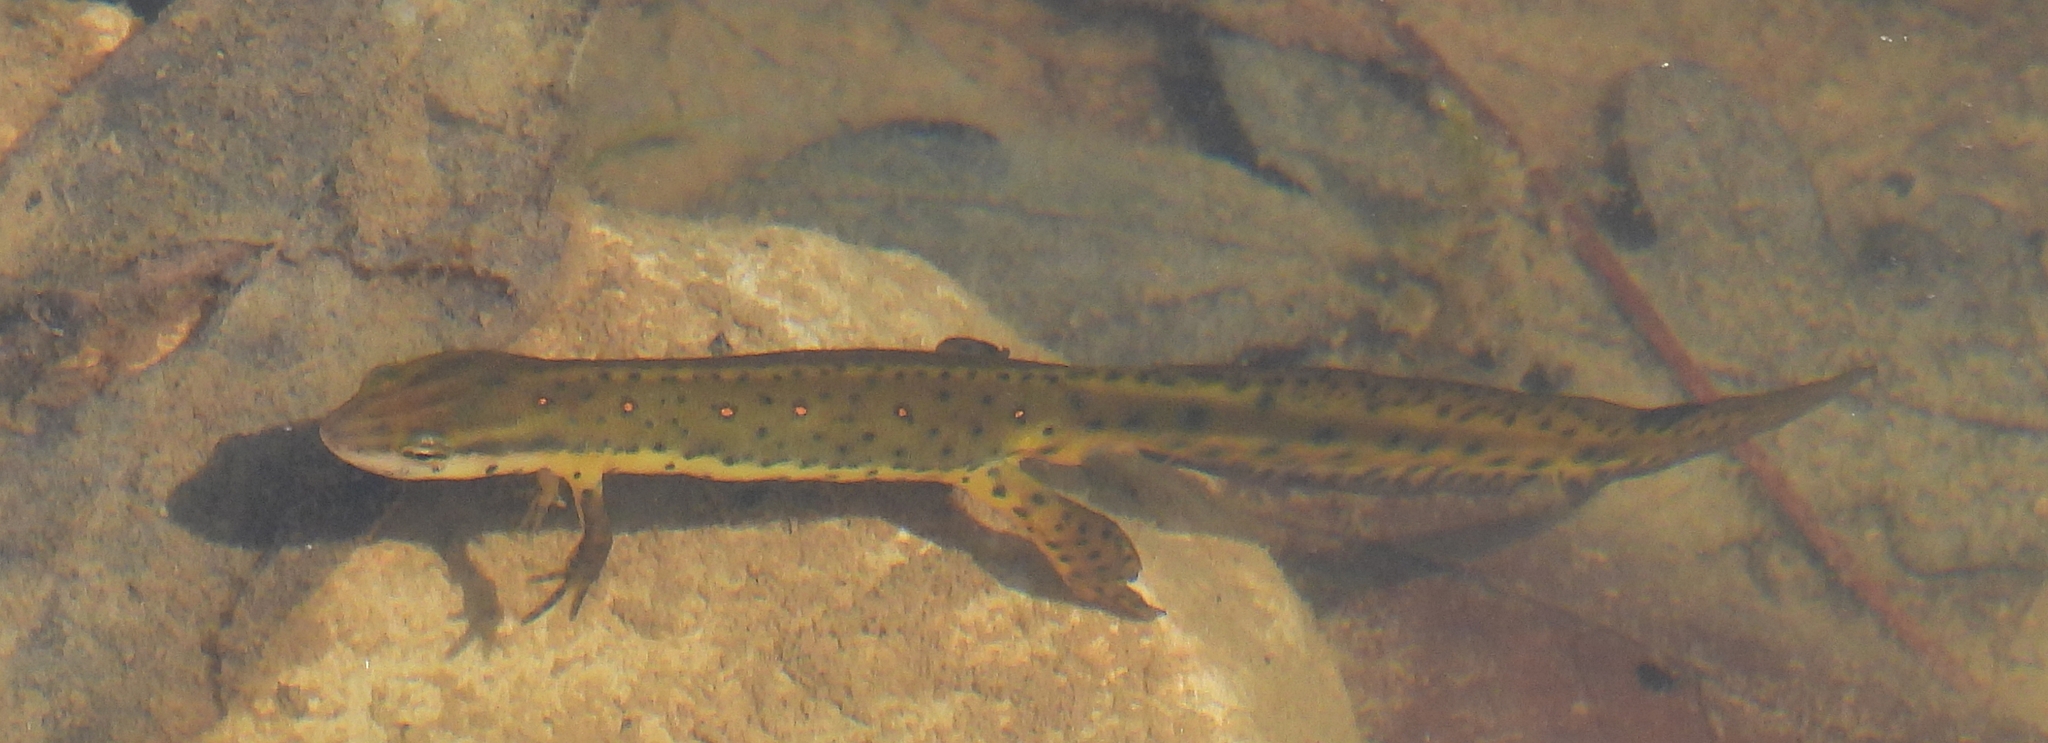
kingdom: Animalia
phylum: Chordata
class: Amphibia
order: Caudata
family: Salamandridae
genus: Notophthalmus
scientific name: Notophthalmus viridescens
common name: Eastern newt
